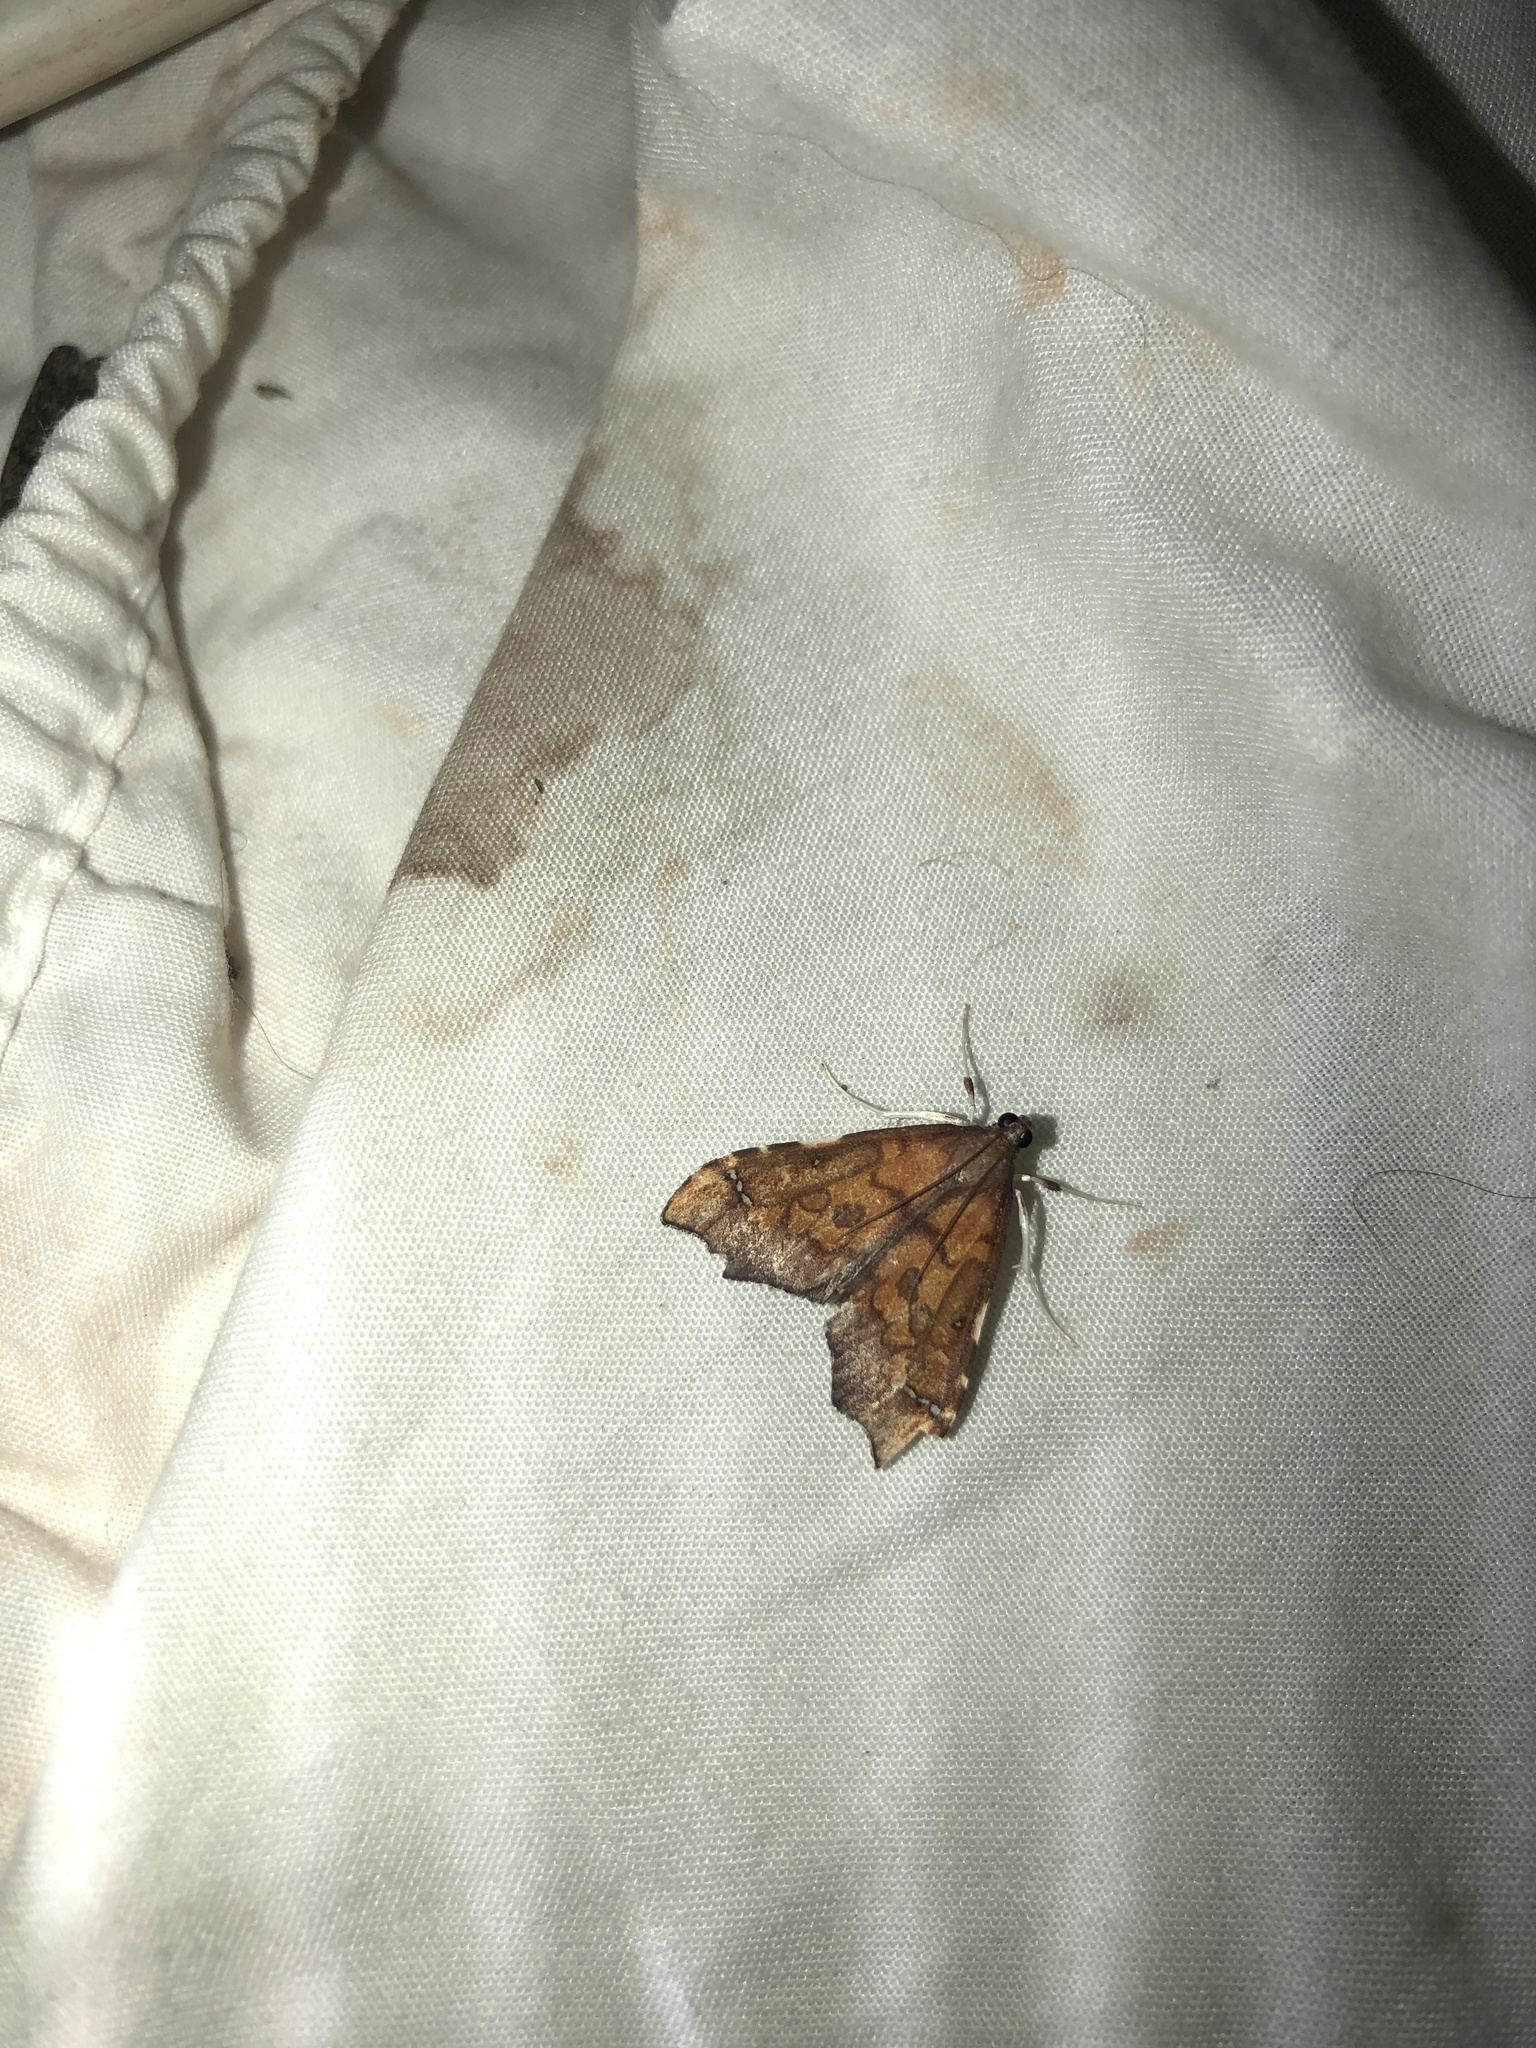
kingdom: Animalia
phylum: Arthropoda
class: Insecta
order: Lepidoptera
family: Crambidae
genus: Deana
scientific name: Deana hybreasalis
